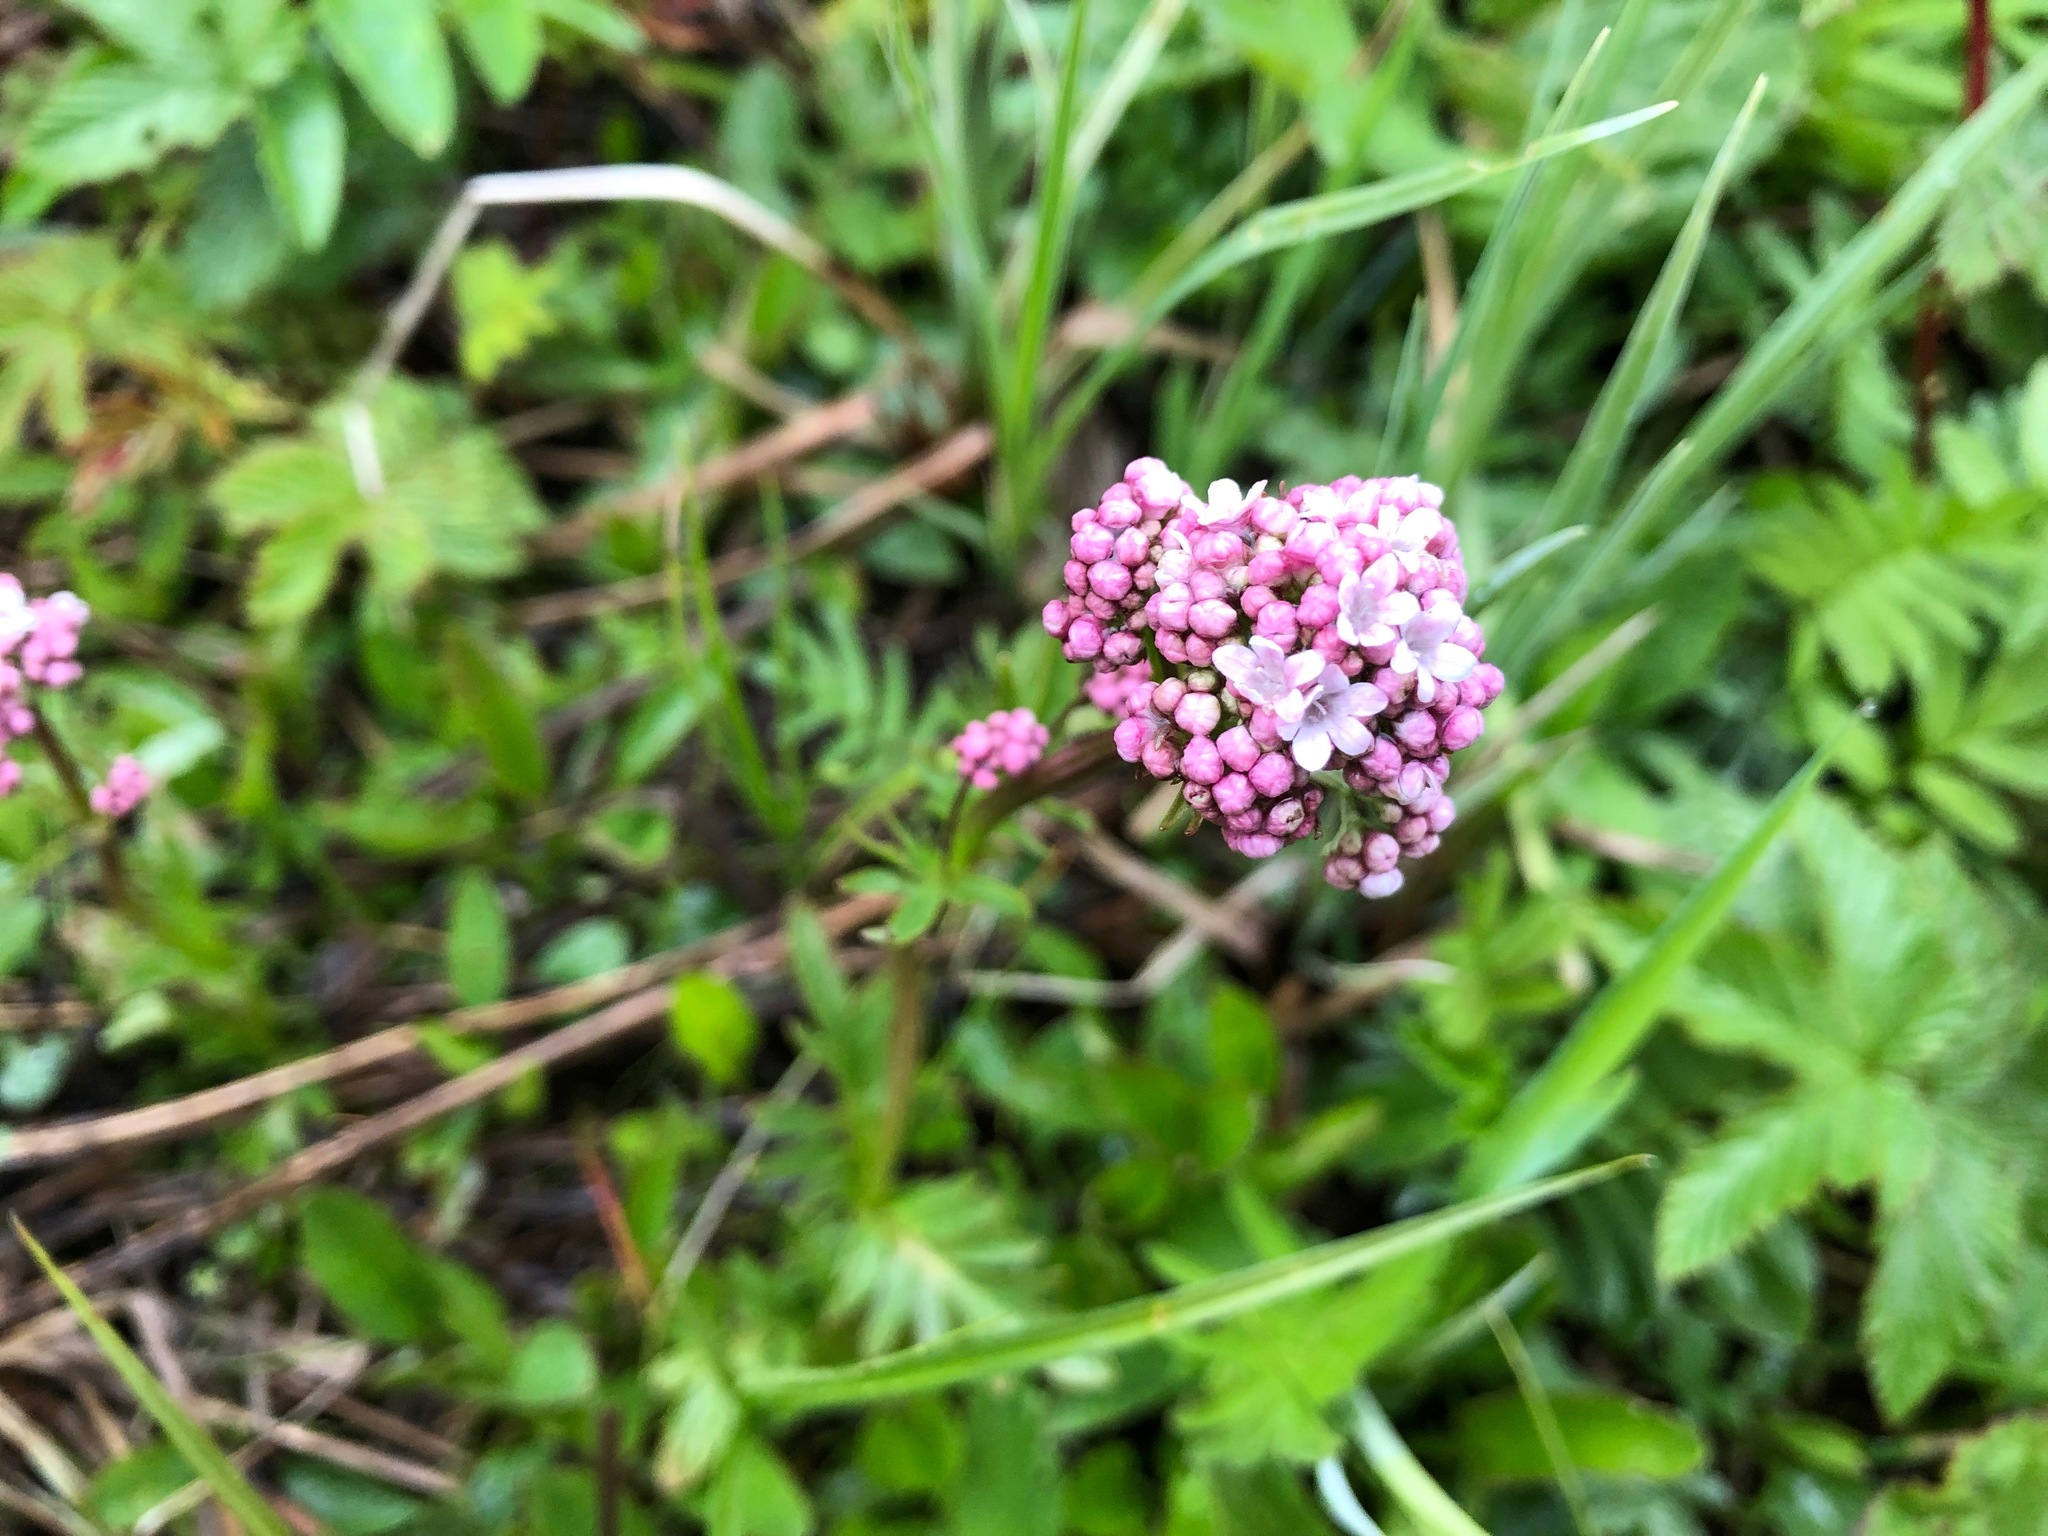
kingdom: Plantae
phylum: Tracheophyta
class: Magnoliopsida
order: Dipsacales
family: Caprifoliaceae
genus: Valeriana
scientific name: Valeriana dioica
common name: Marsh valerian
